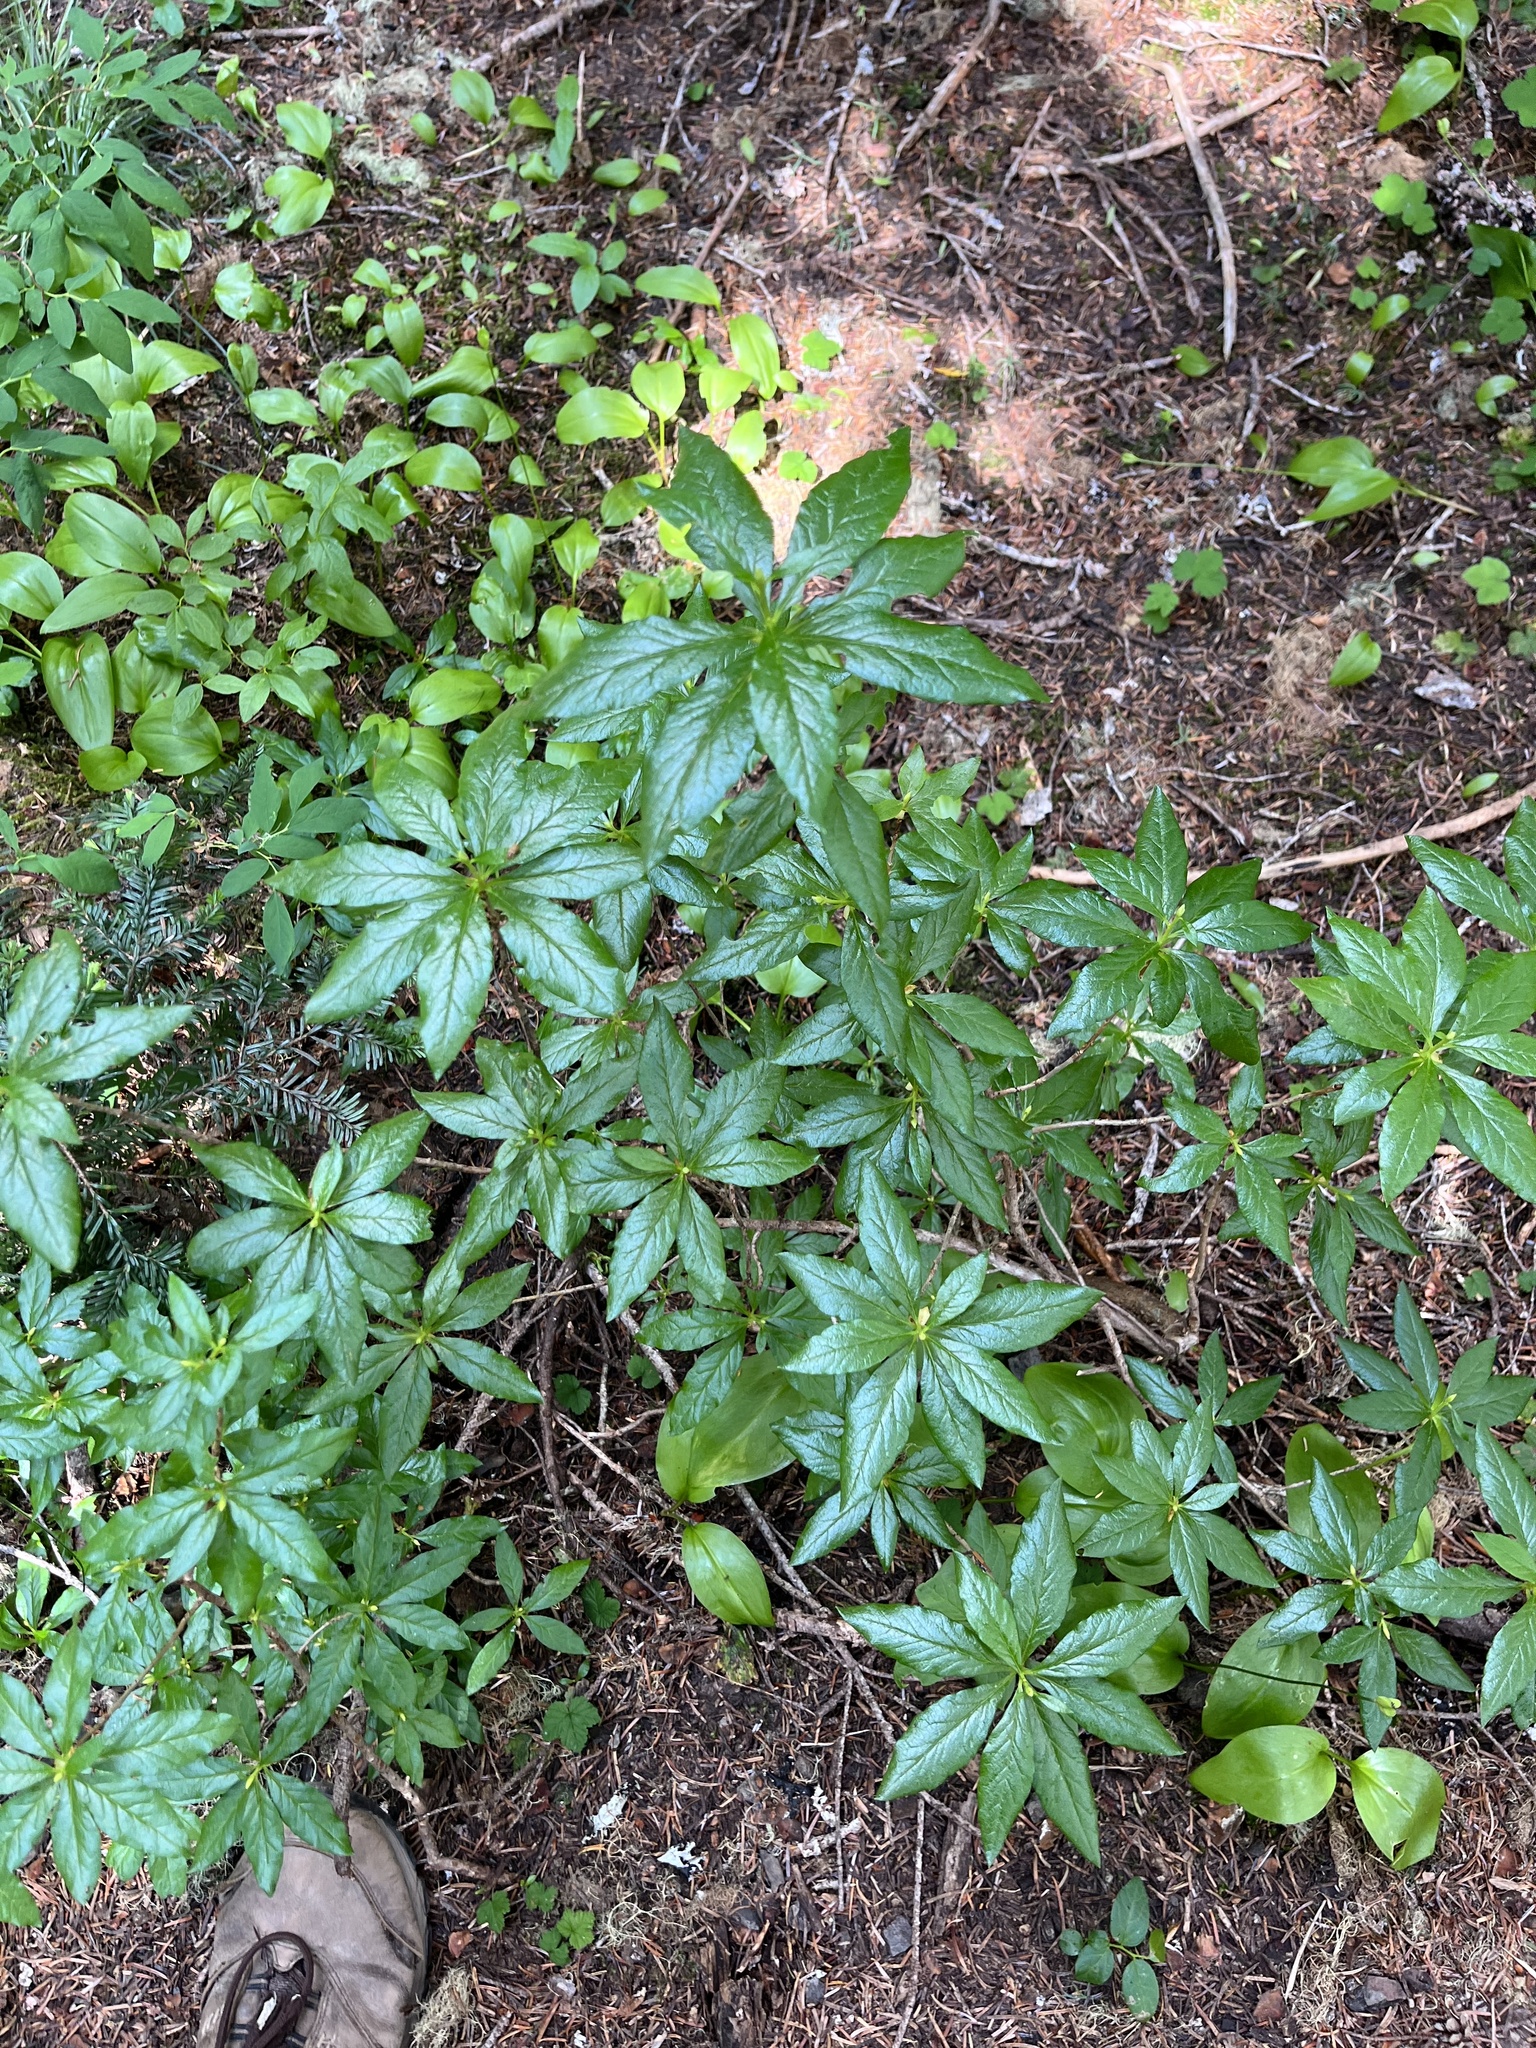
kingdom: Plantae
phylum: Tracheophyta
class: Magnoliopsida
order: Ericales
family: Ericaceae
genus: Rhododendron
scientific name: Rhododendron albiflorum
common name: White rhododendron
